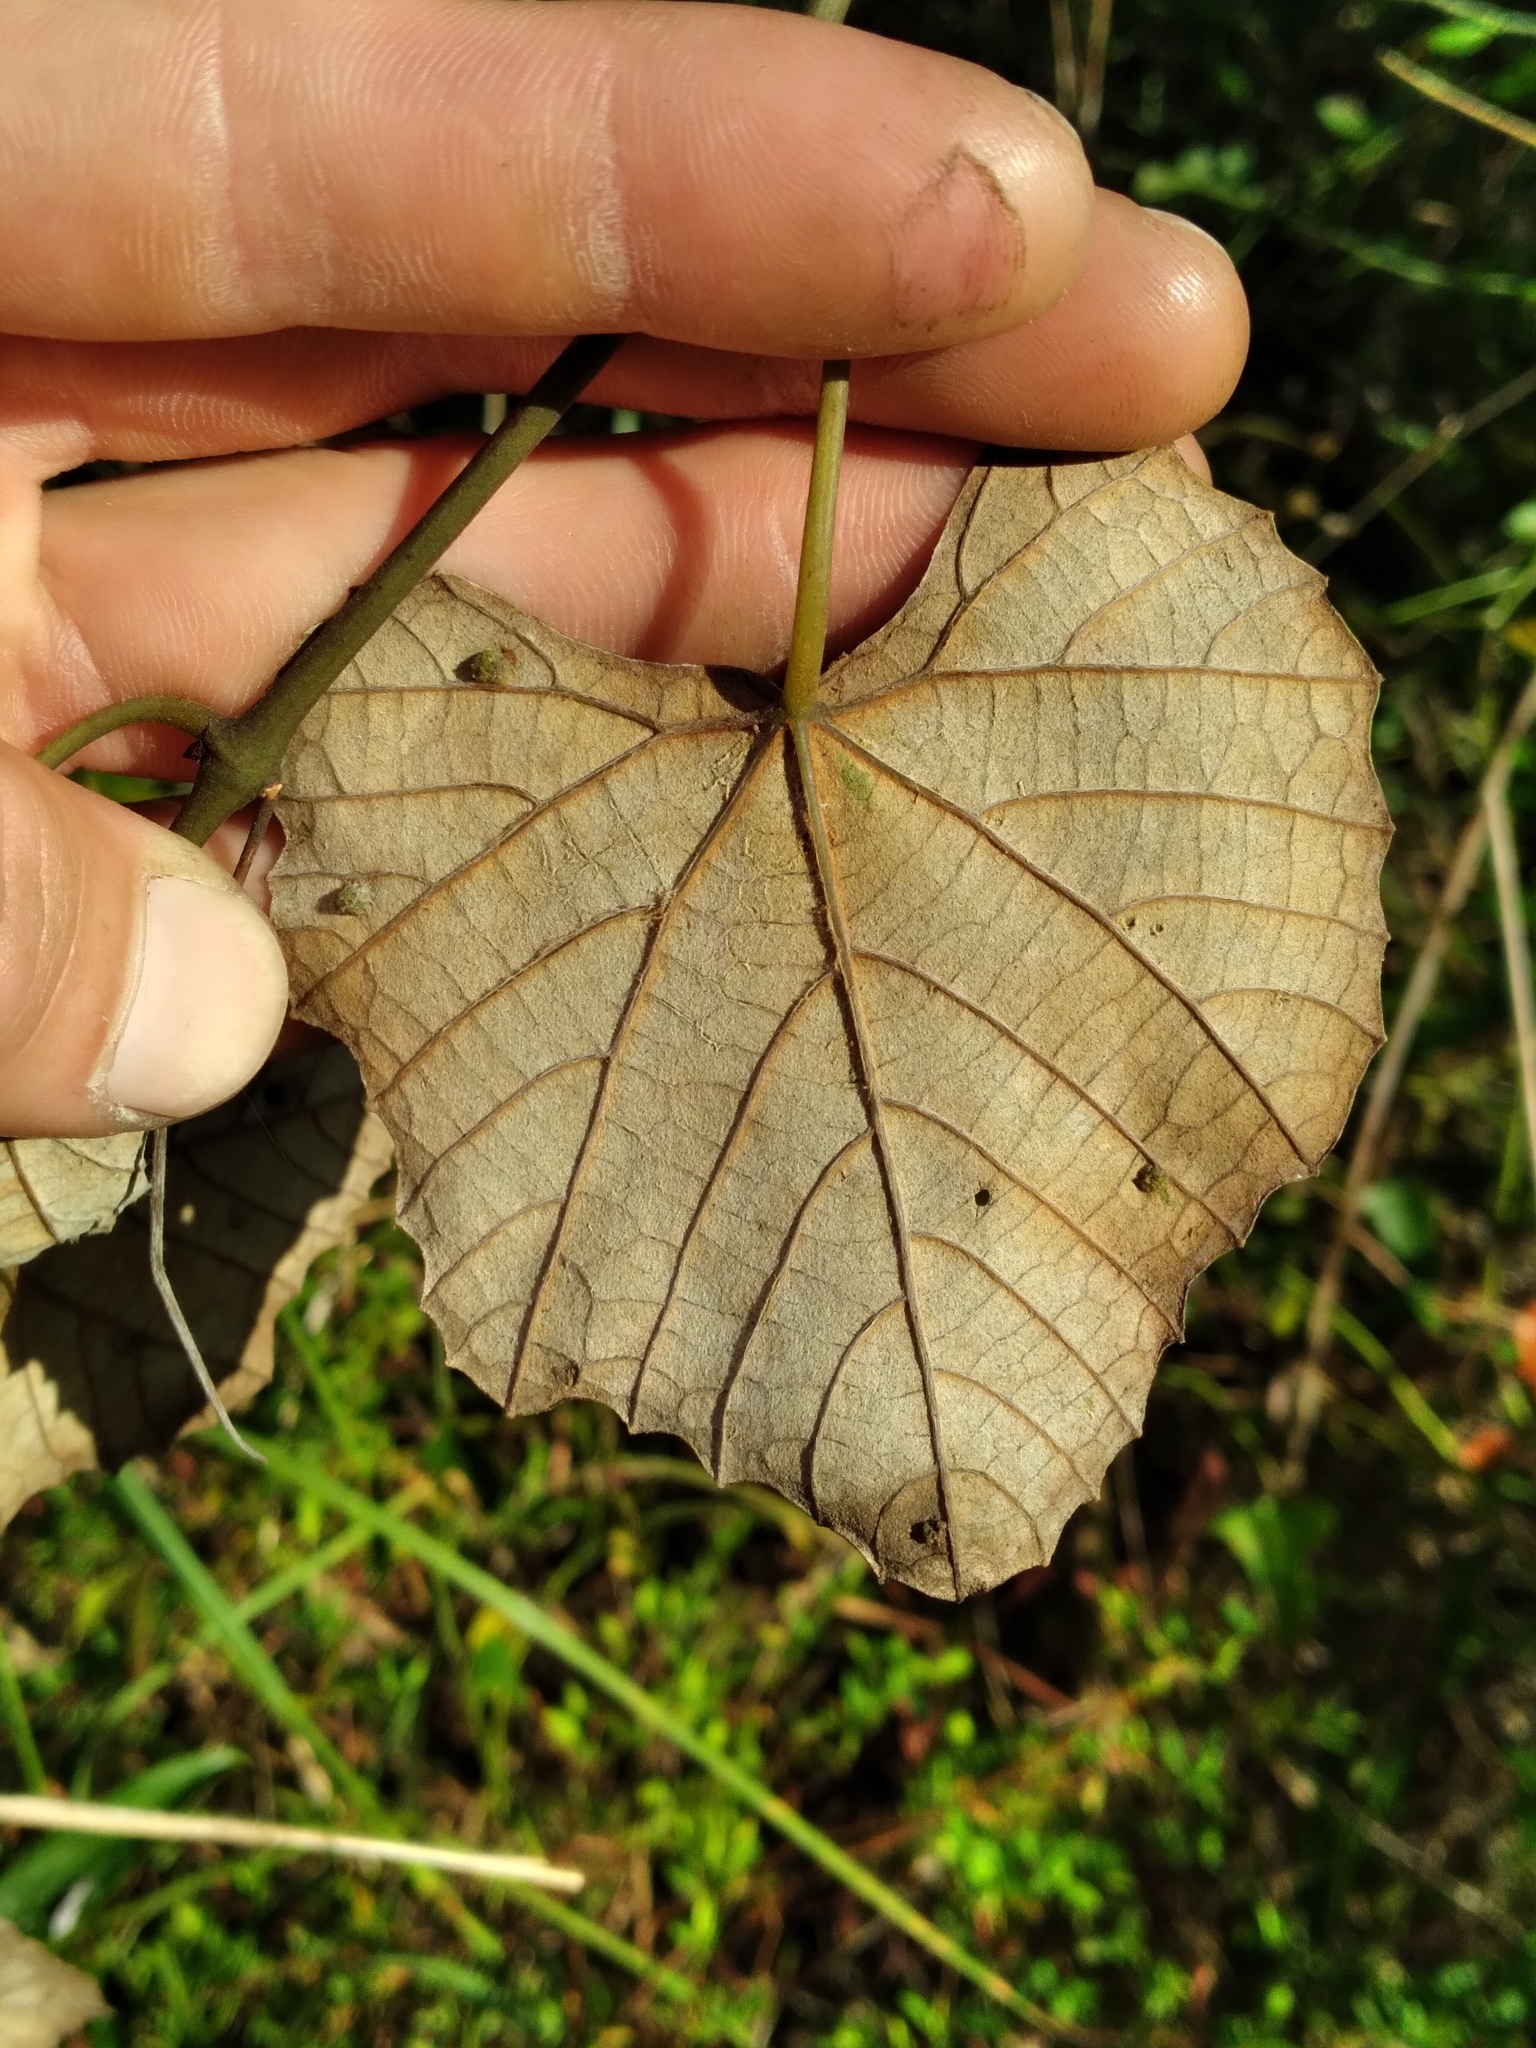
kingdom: Plantae
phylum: Tracheophyta
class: Magnoliopsida
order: Vitales
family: Vitaceae
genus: Vitis
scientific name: Vitis shuttleworthii
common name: Caloosa grape
